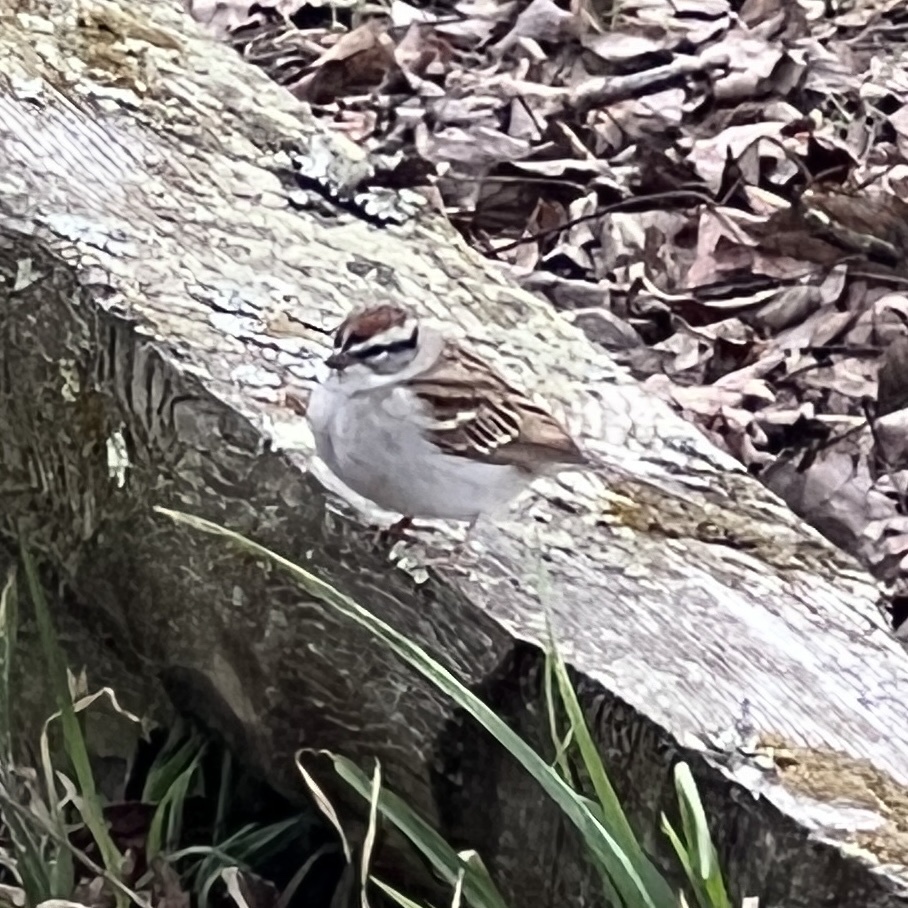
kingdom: Animalia
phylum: Chordata
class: Aves
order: Passeriformes
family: Passerellidae
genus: Spizella
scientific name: Spizella passerina
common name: Chipping sparrow
